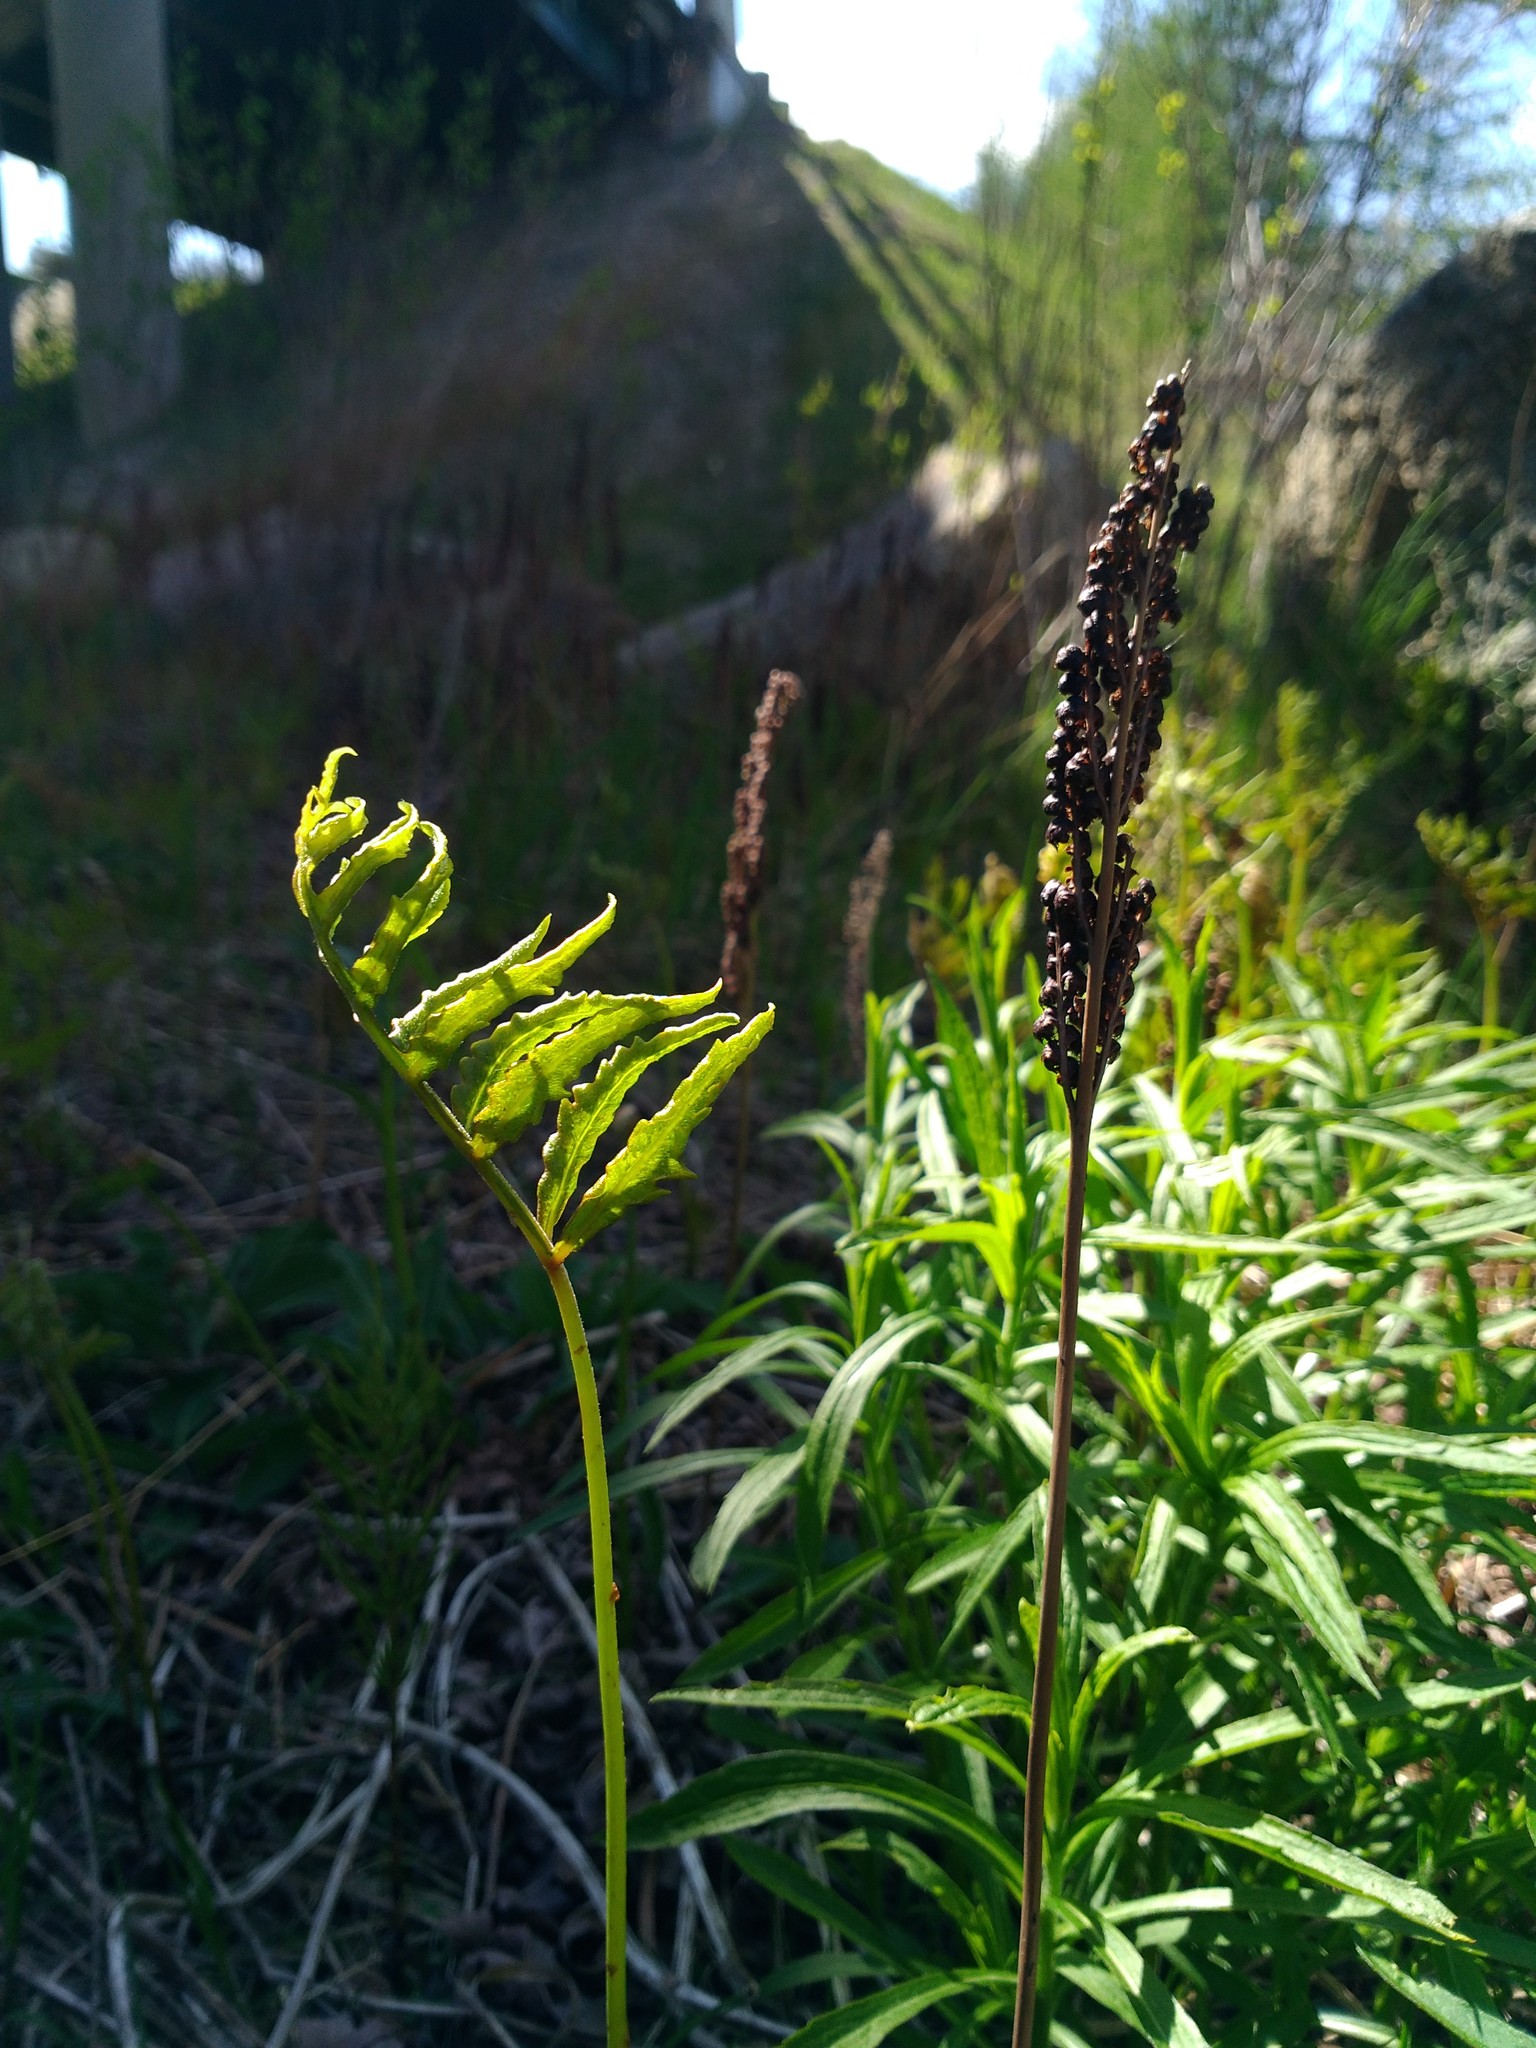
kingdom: Plantae
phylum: Tracheophyta
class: Polypodiopsida
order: Polypodiales
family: Onocleaceae
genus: Onoclea
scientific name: Onoclea sensibilis
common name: Sensitive fern
